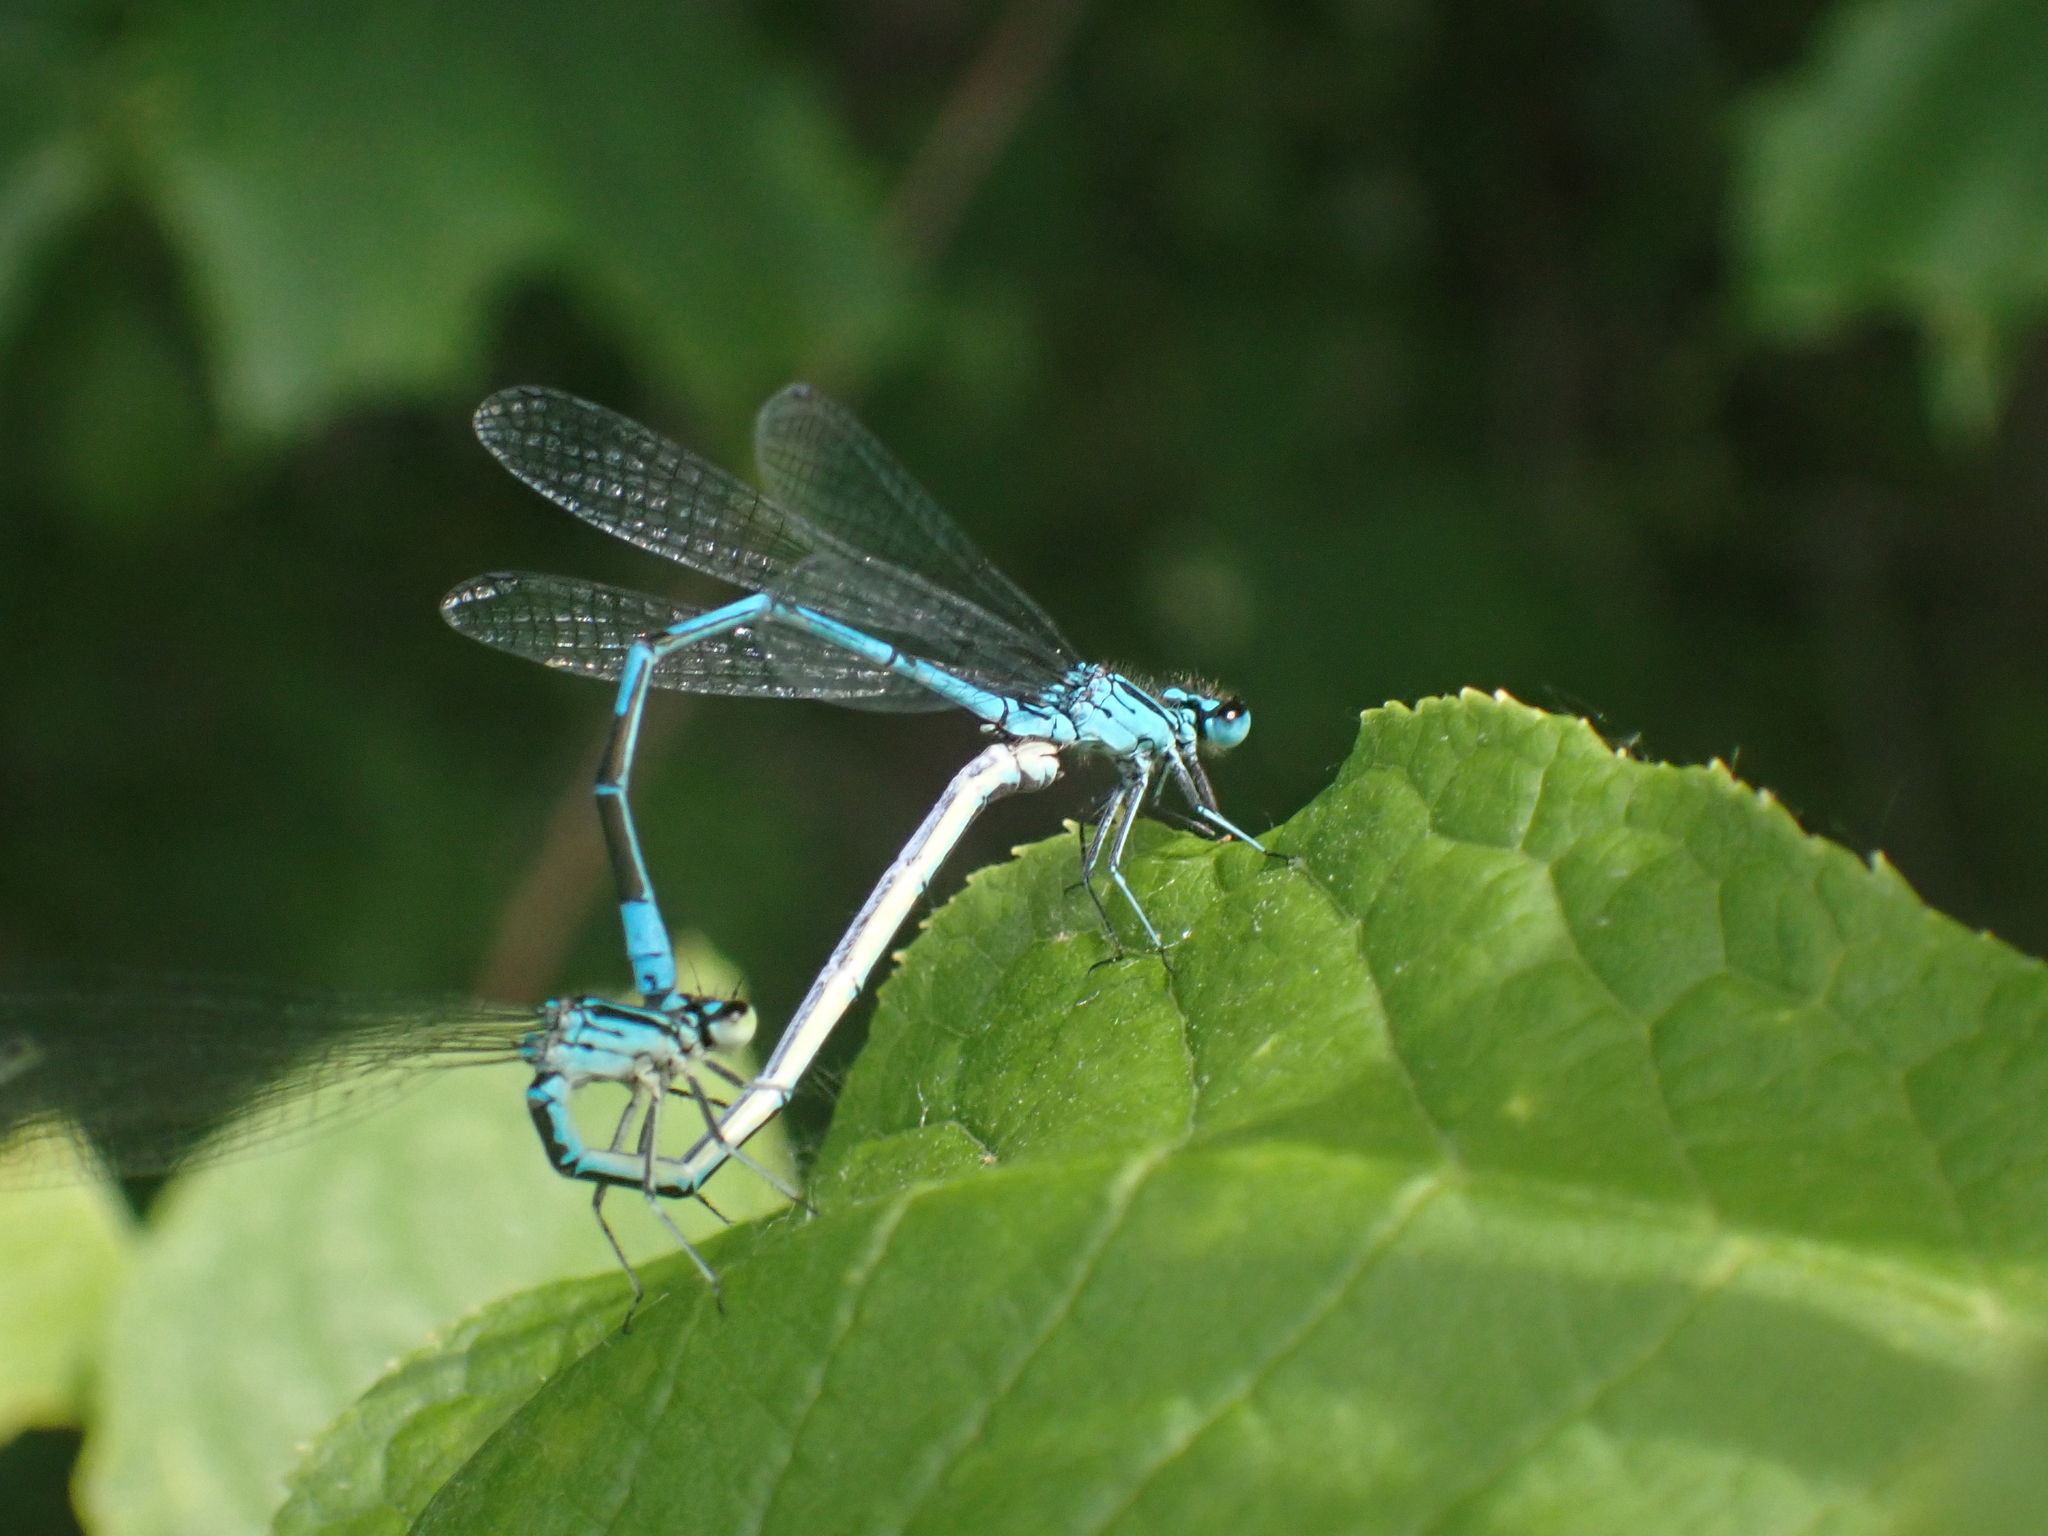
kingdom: Animalia
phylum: Arthropoda
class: Insecta
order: Odonata
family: Coenagrionidae
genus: Coenagrion
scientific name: Coenagrion puella
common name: Azure damselfly
